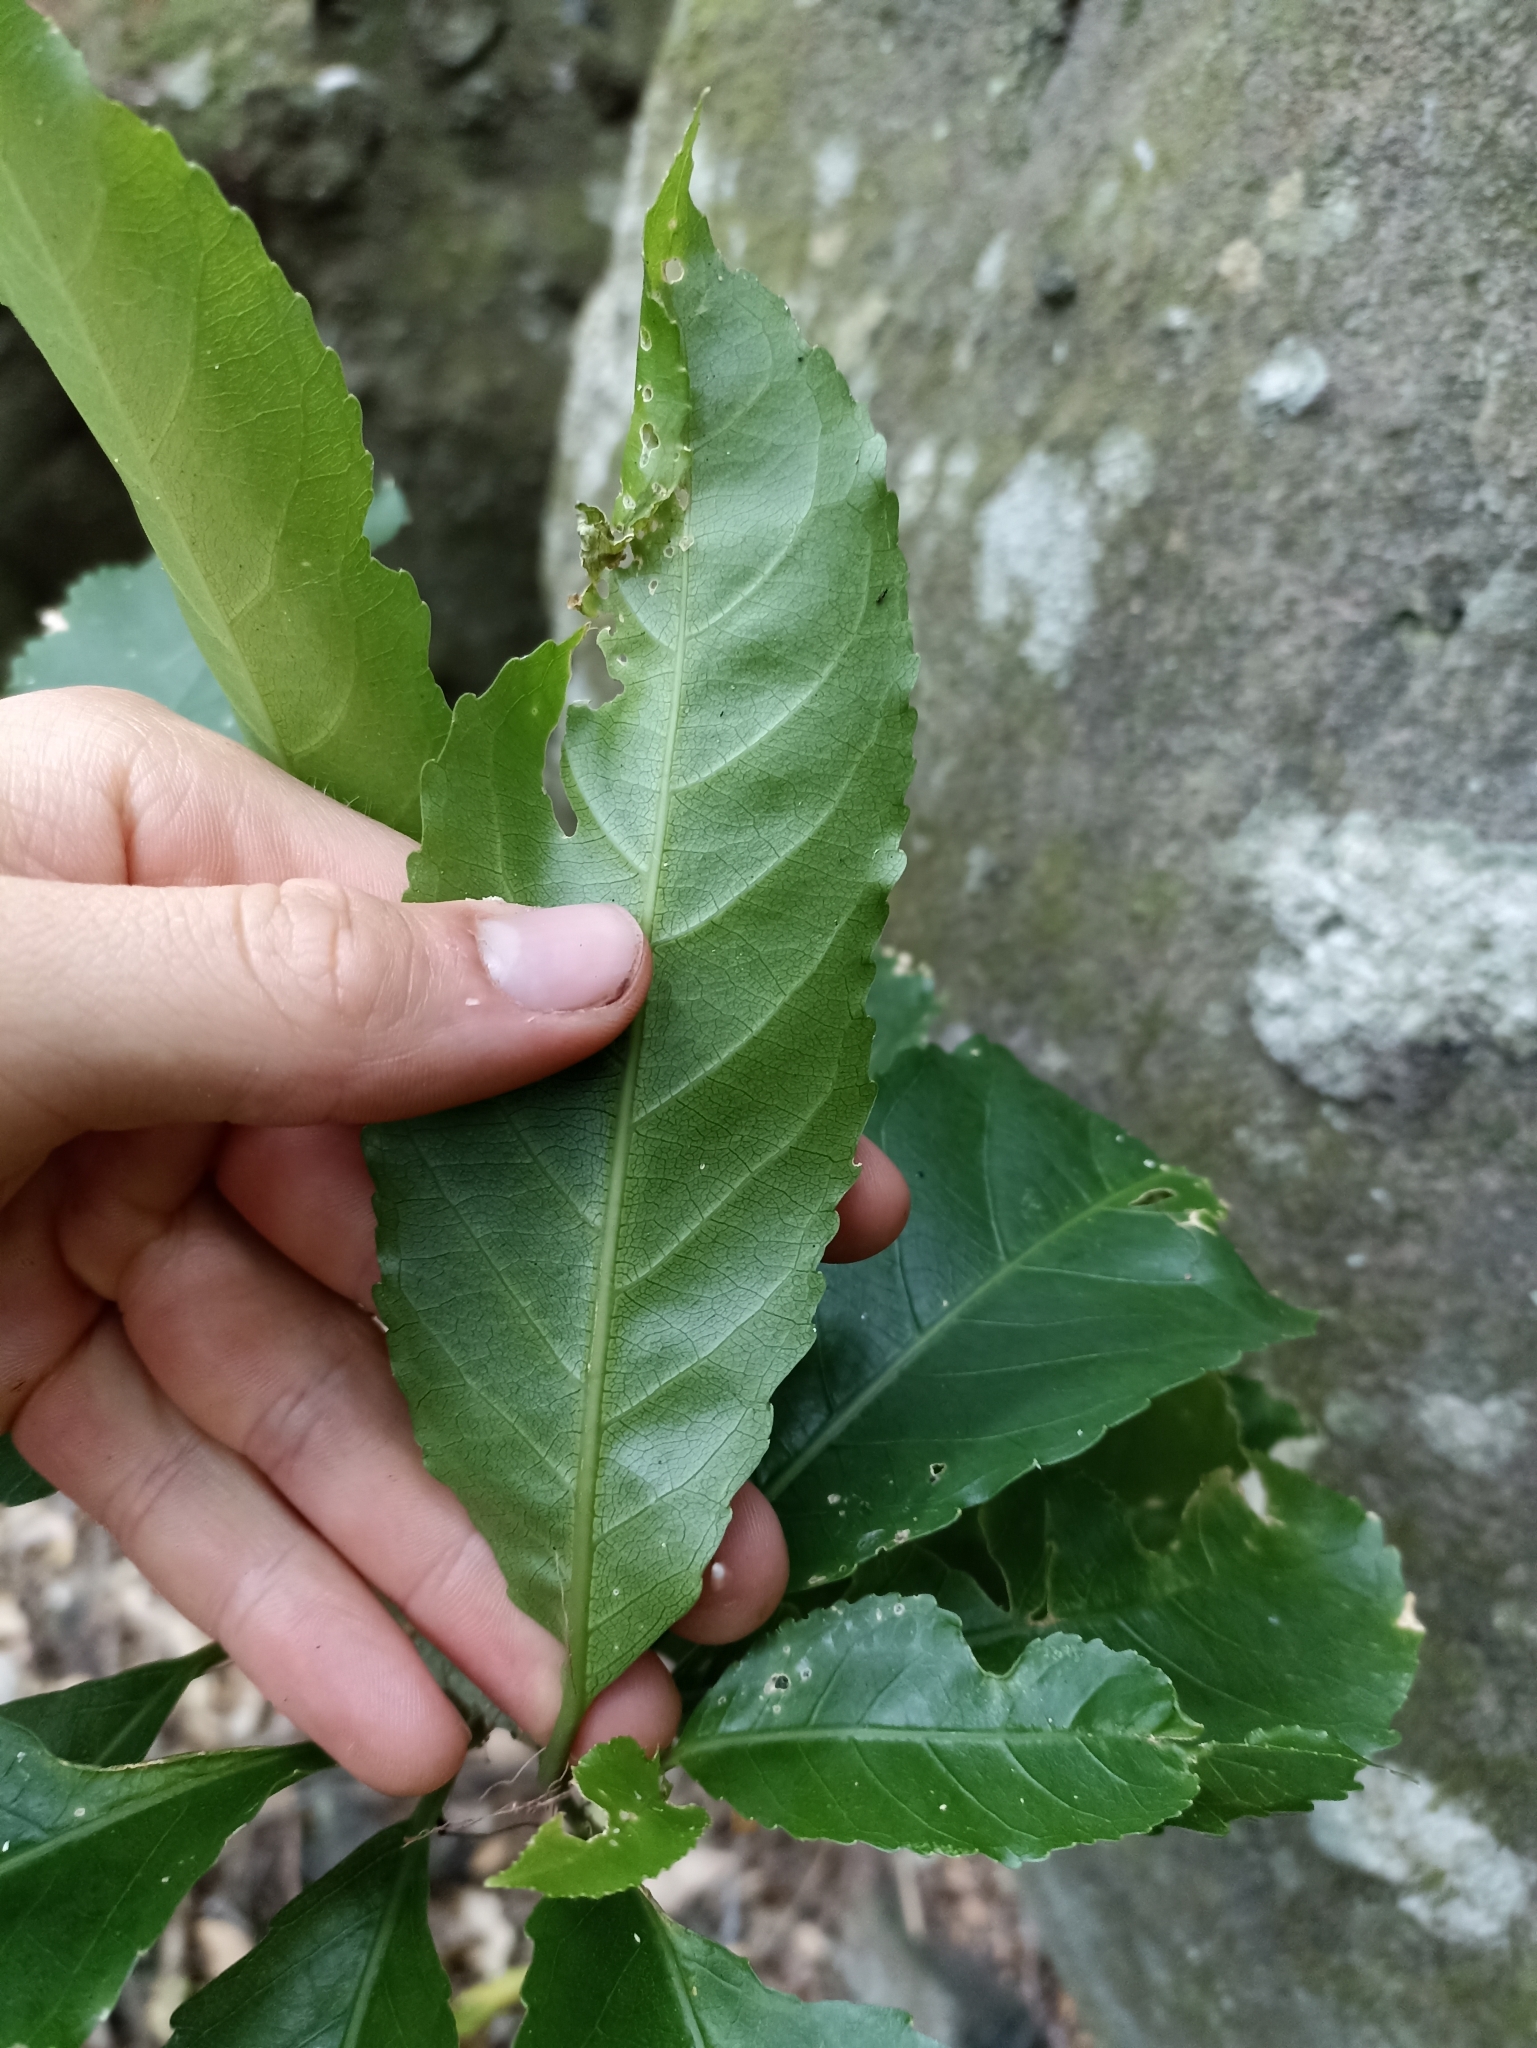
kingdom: Plantae
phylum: Tracheophyta
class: Magnoliopsida
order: Malpighiales
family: Violaceae
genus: Melicytus
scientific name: Melicytus ramiflorus
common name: Mahoe
